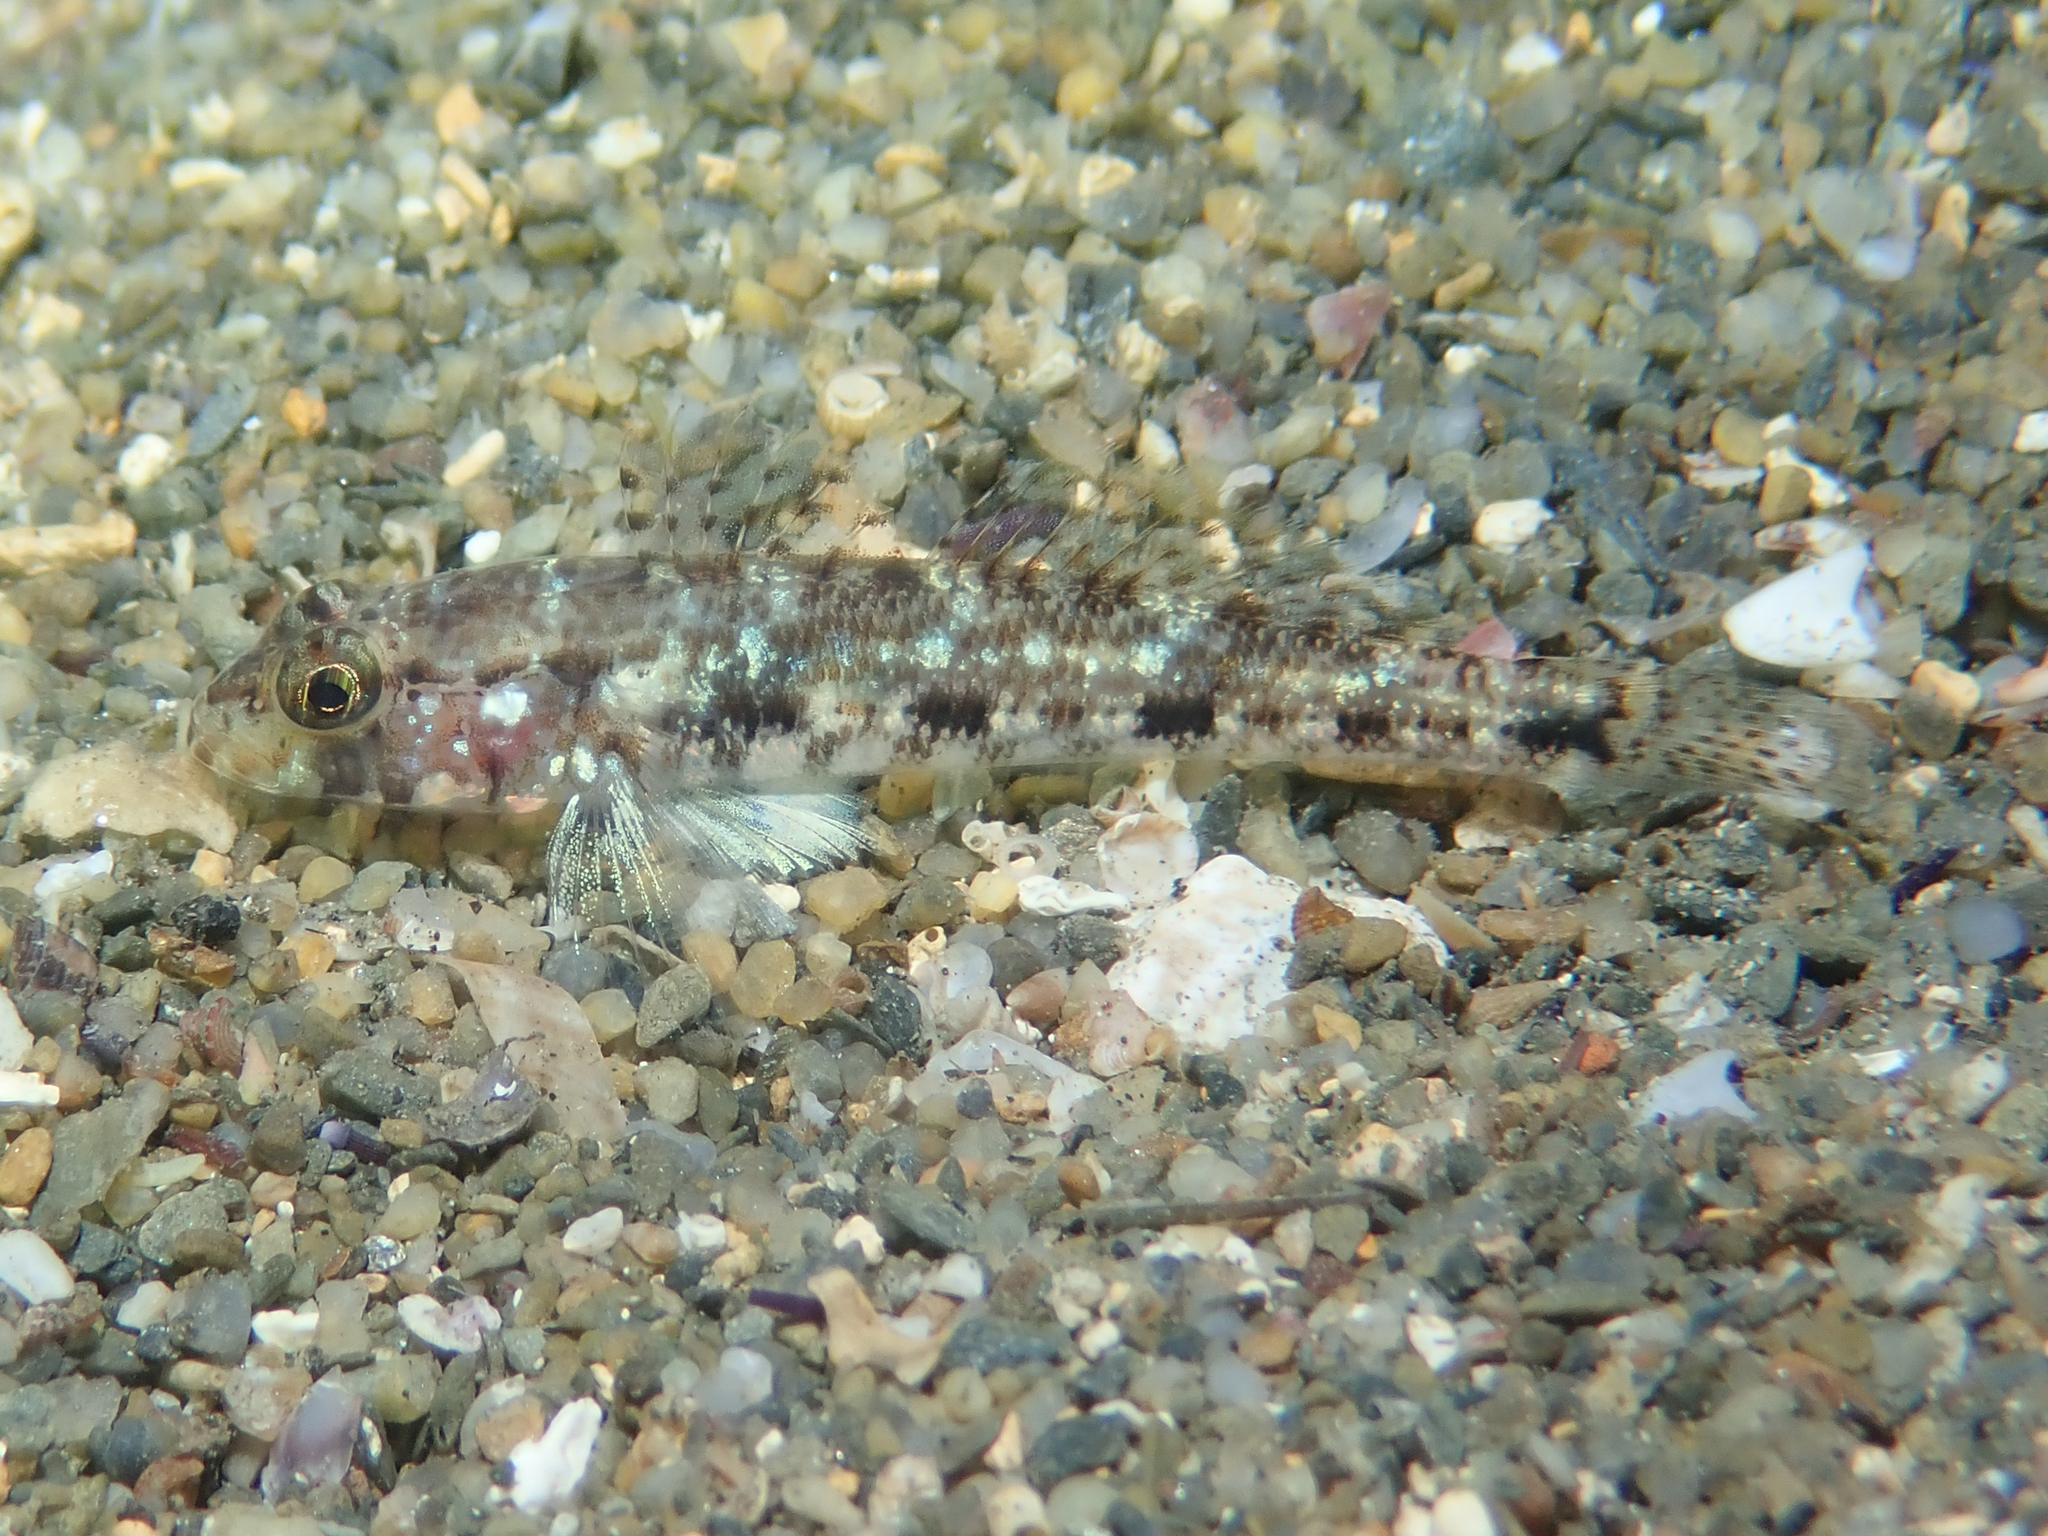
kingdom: Animalia
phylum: Chordata
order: Perciformes
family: Gobiidae
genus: Gobius
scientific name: Gobius geniporus
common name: Slender goby
